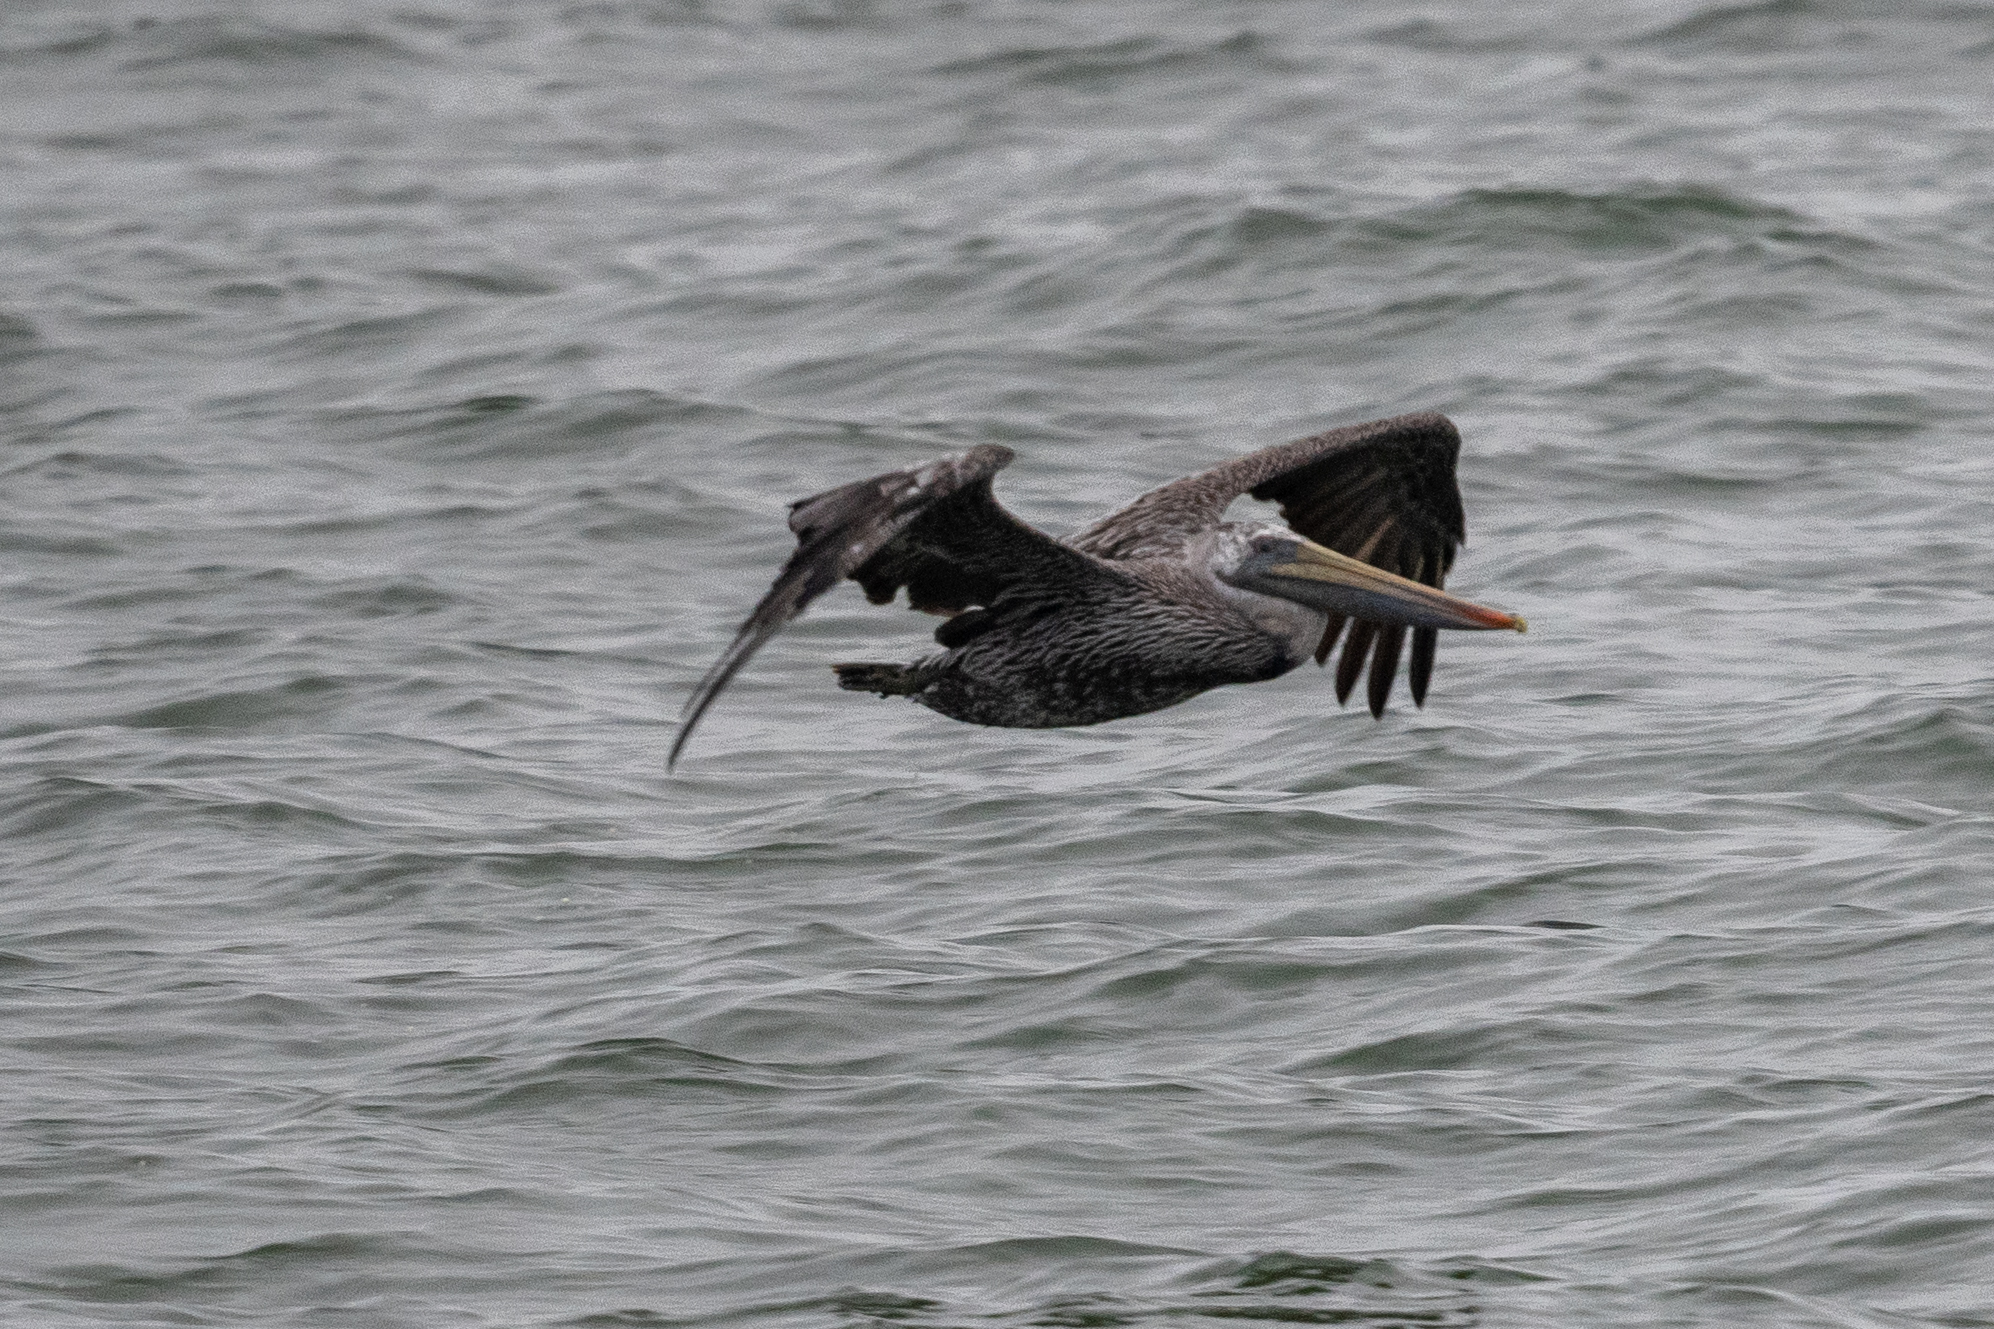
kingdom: Animalia
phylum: Chordata
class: Aves
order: Pelecaniformes
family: Pelecanidae
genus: Pelecanus
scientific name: Pelecanus occidentalis
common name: Brown pelican
